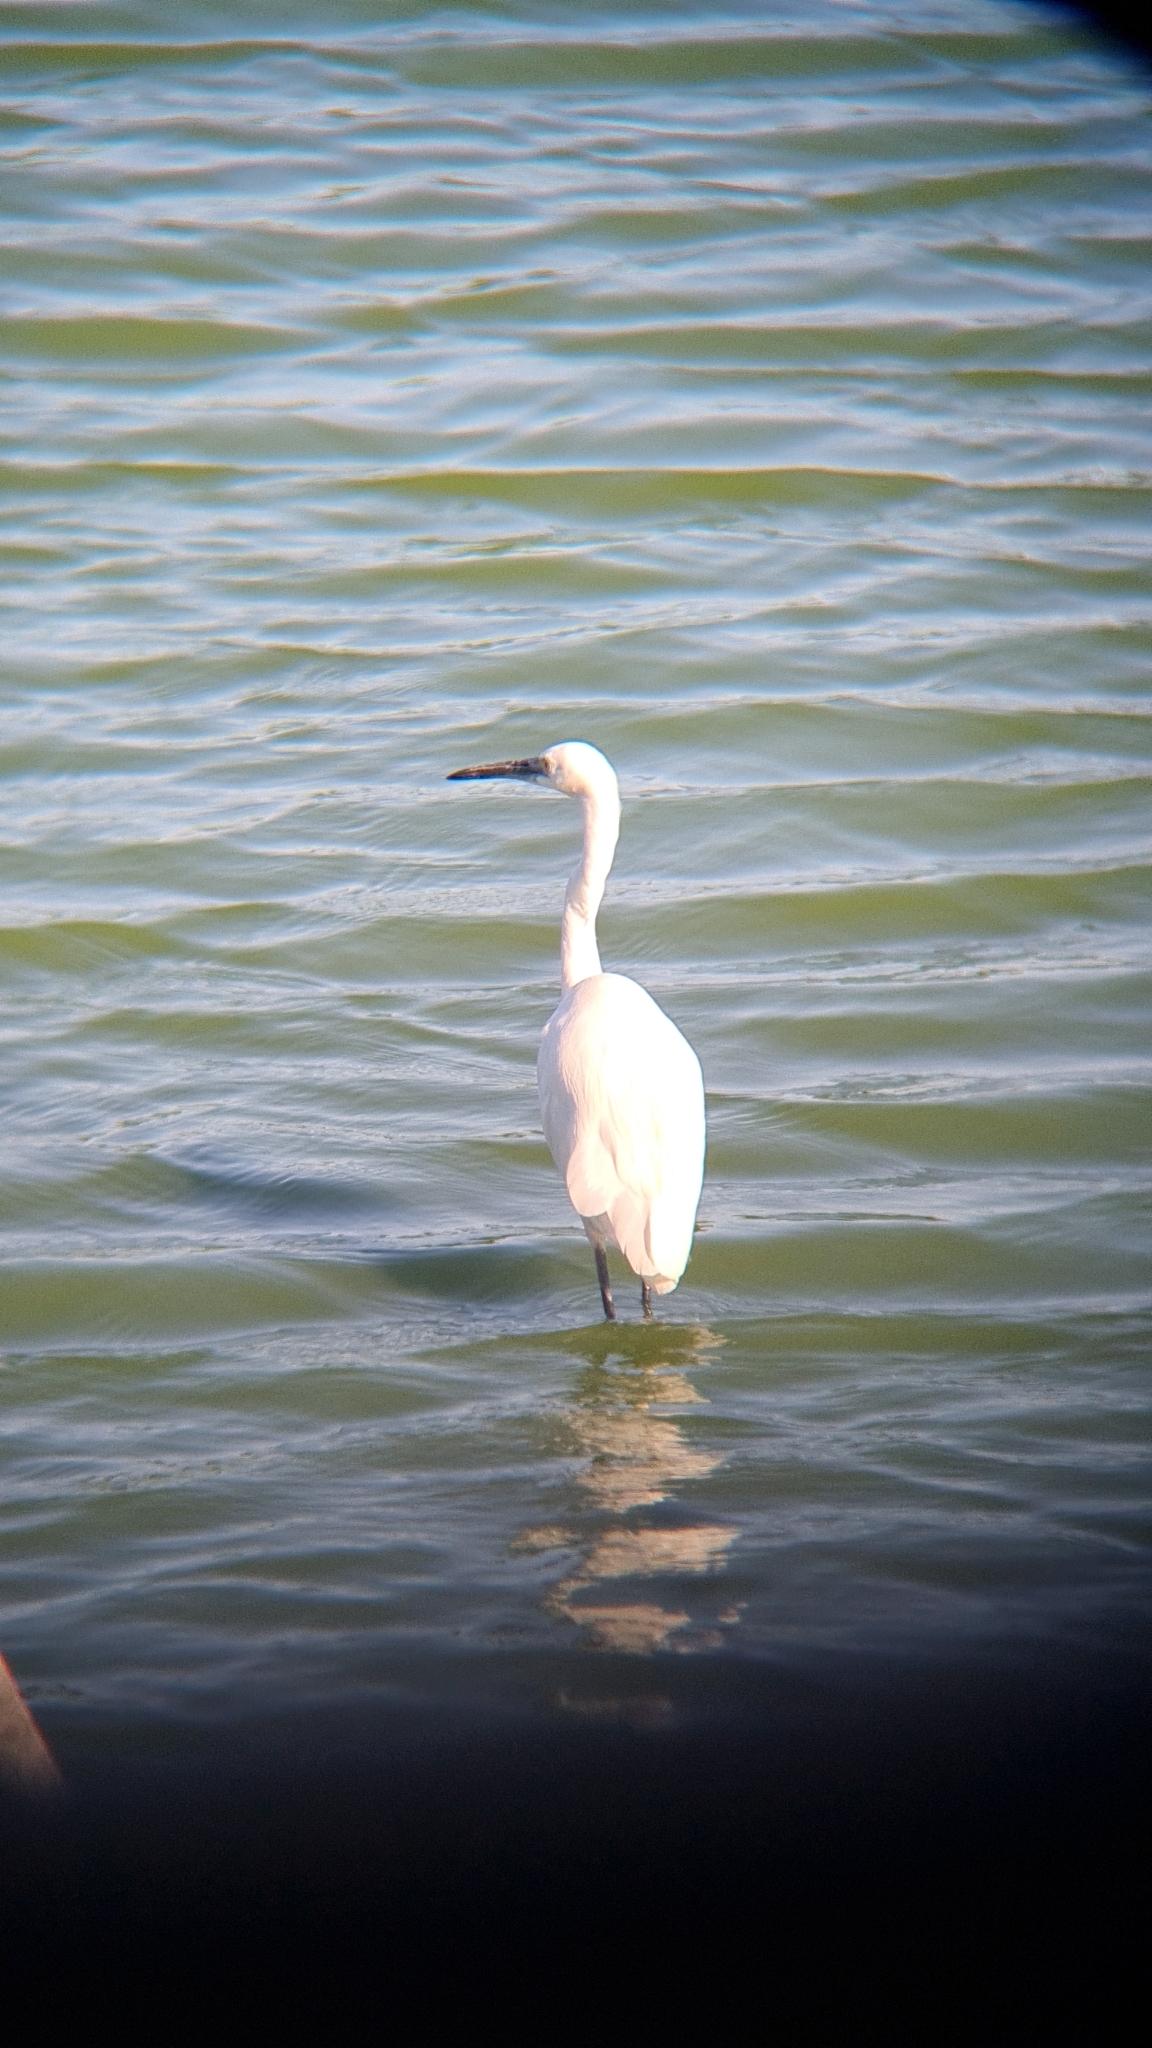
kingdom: Animalia
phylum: Chordata
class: Aves
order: Pelecaniformes
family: Ardeidae
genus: Egretta
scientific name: Egretta garzetta
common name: Little egret
